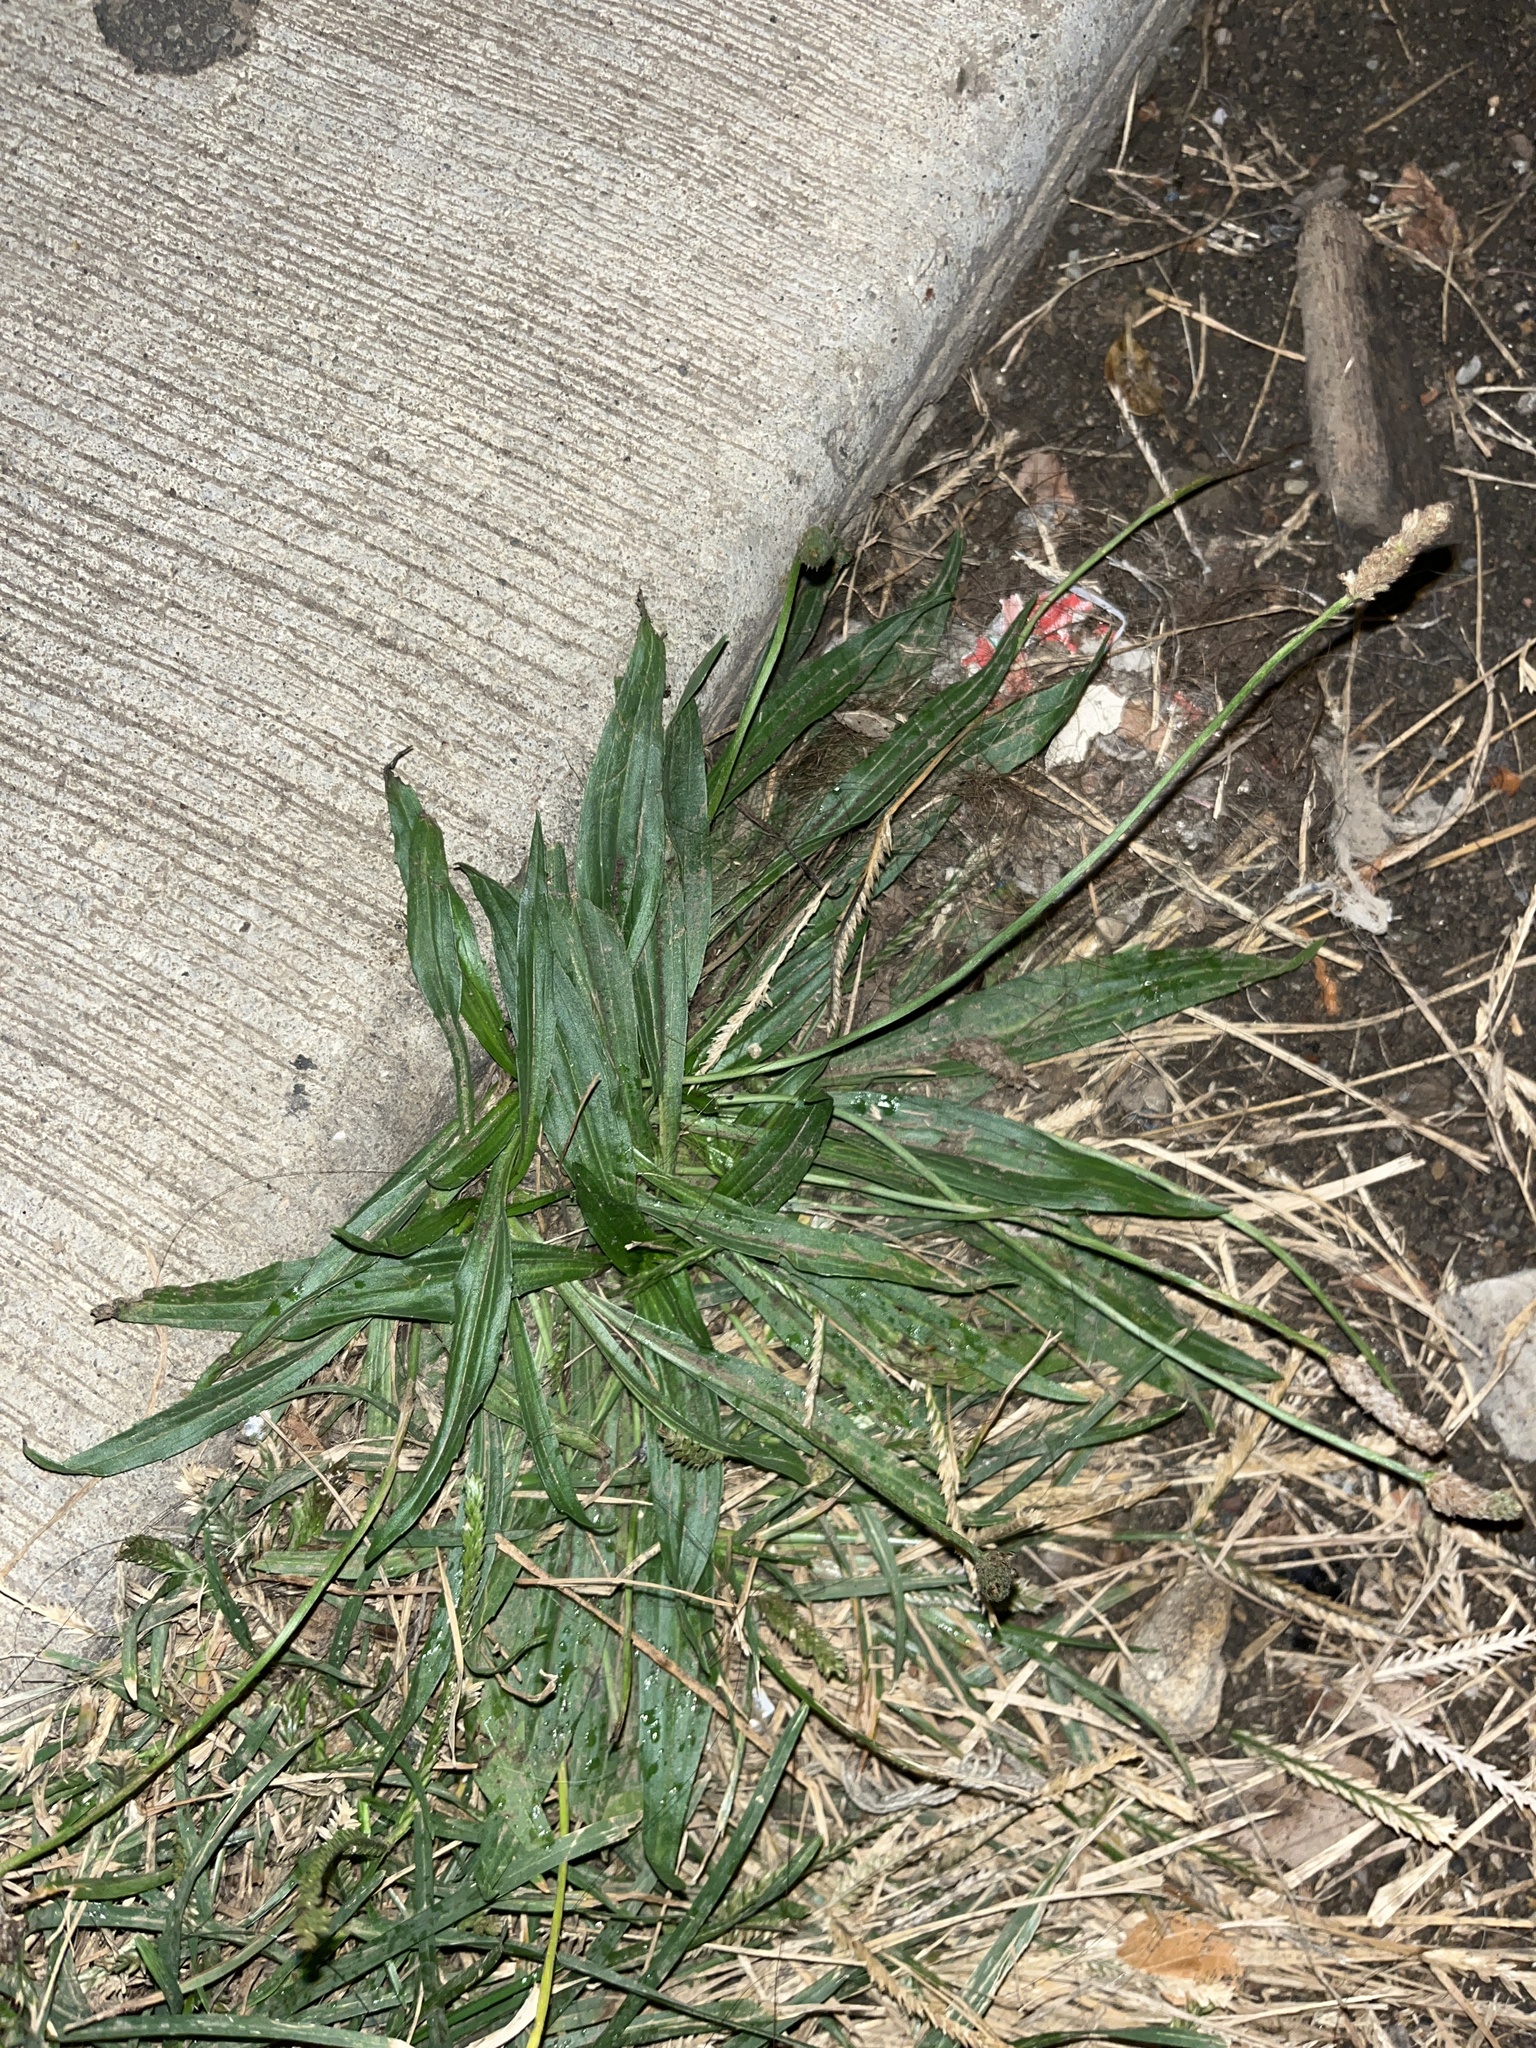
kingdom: Plantae
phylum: Tracheophyta
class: Magnoliopsida
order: Lamiales
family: Plantaginaceae
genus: Plantago
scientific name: Plantago lanceolata
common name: Ribwort plantain
